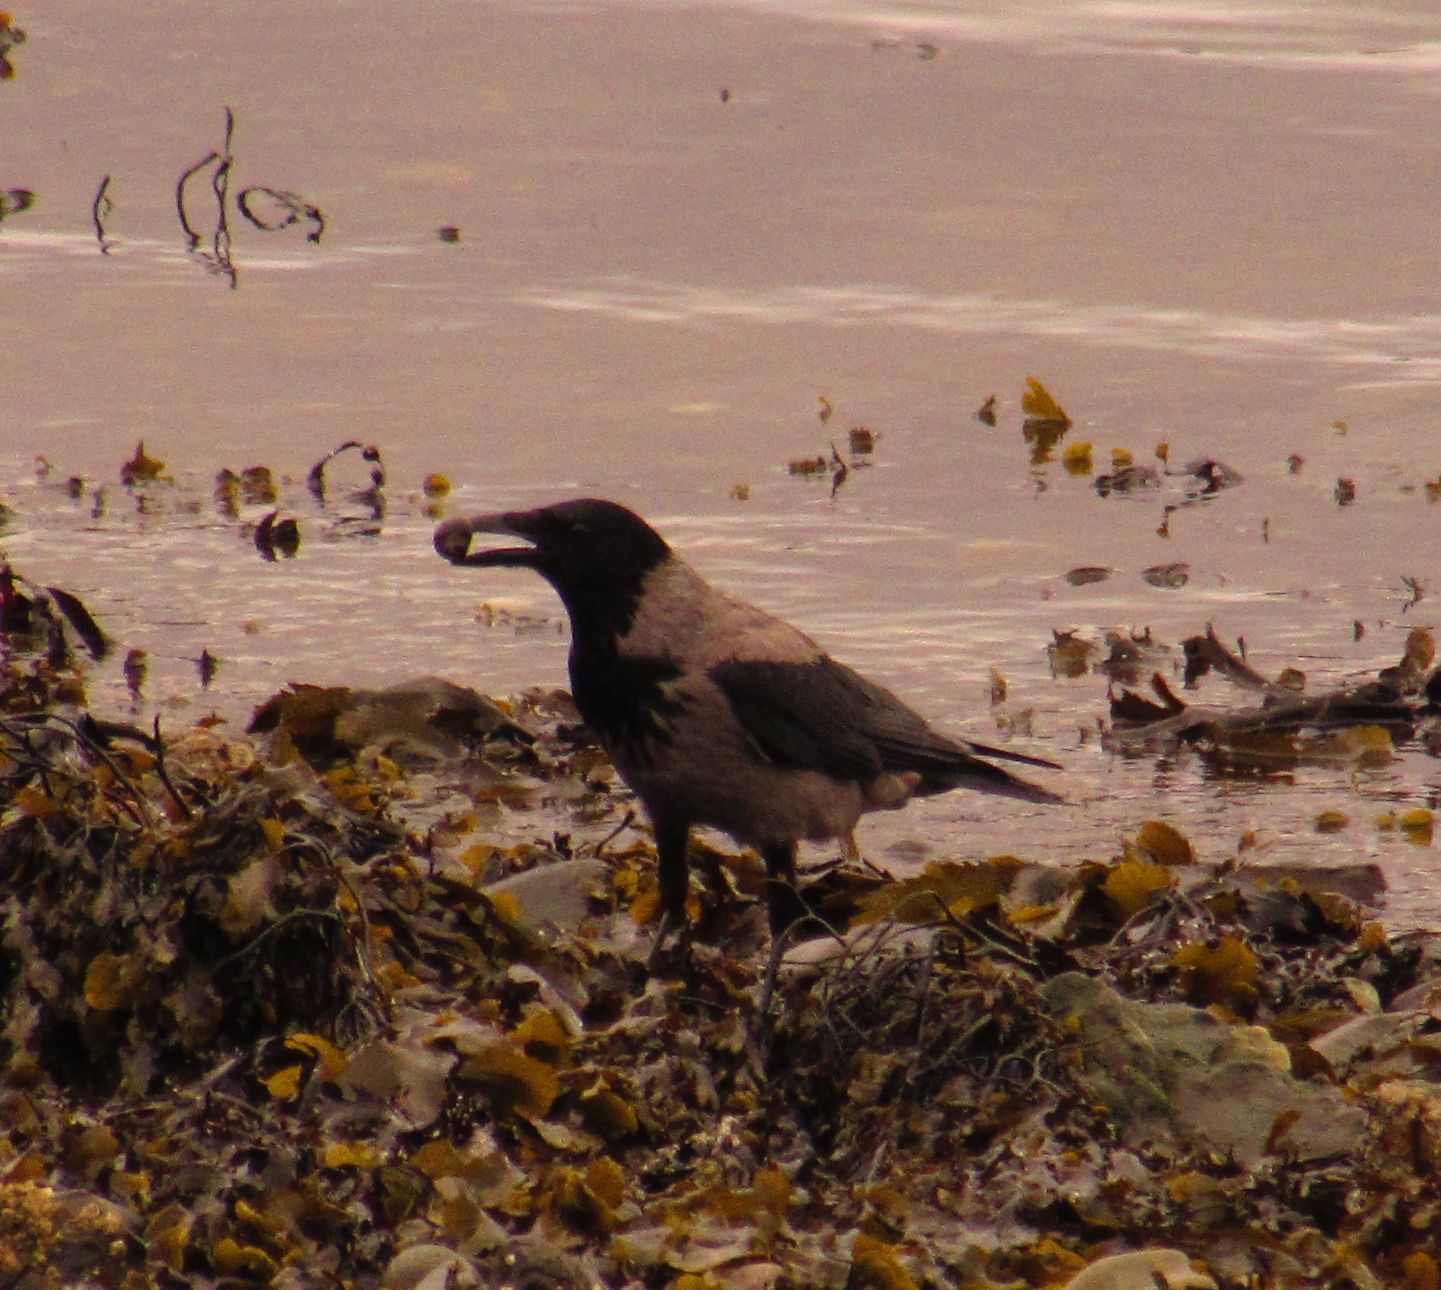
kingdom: Animalia
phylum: Chordata
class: Aves
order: Passeriformes
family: Corvidae
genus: Corvus
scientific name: Corvus cornix
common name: Hooded crow
